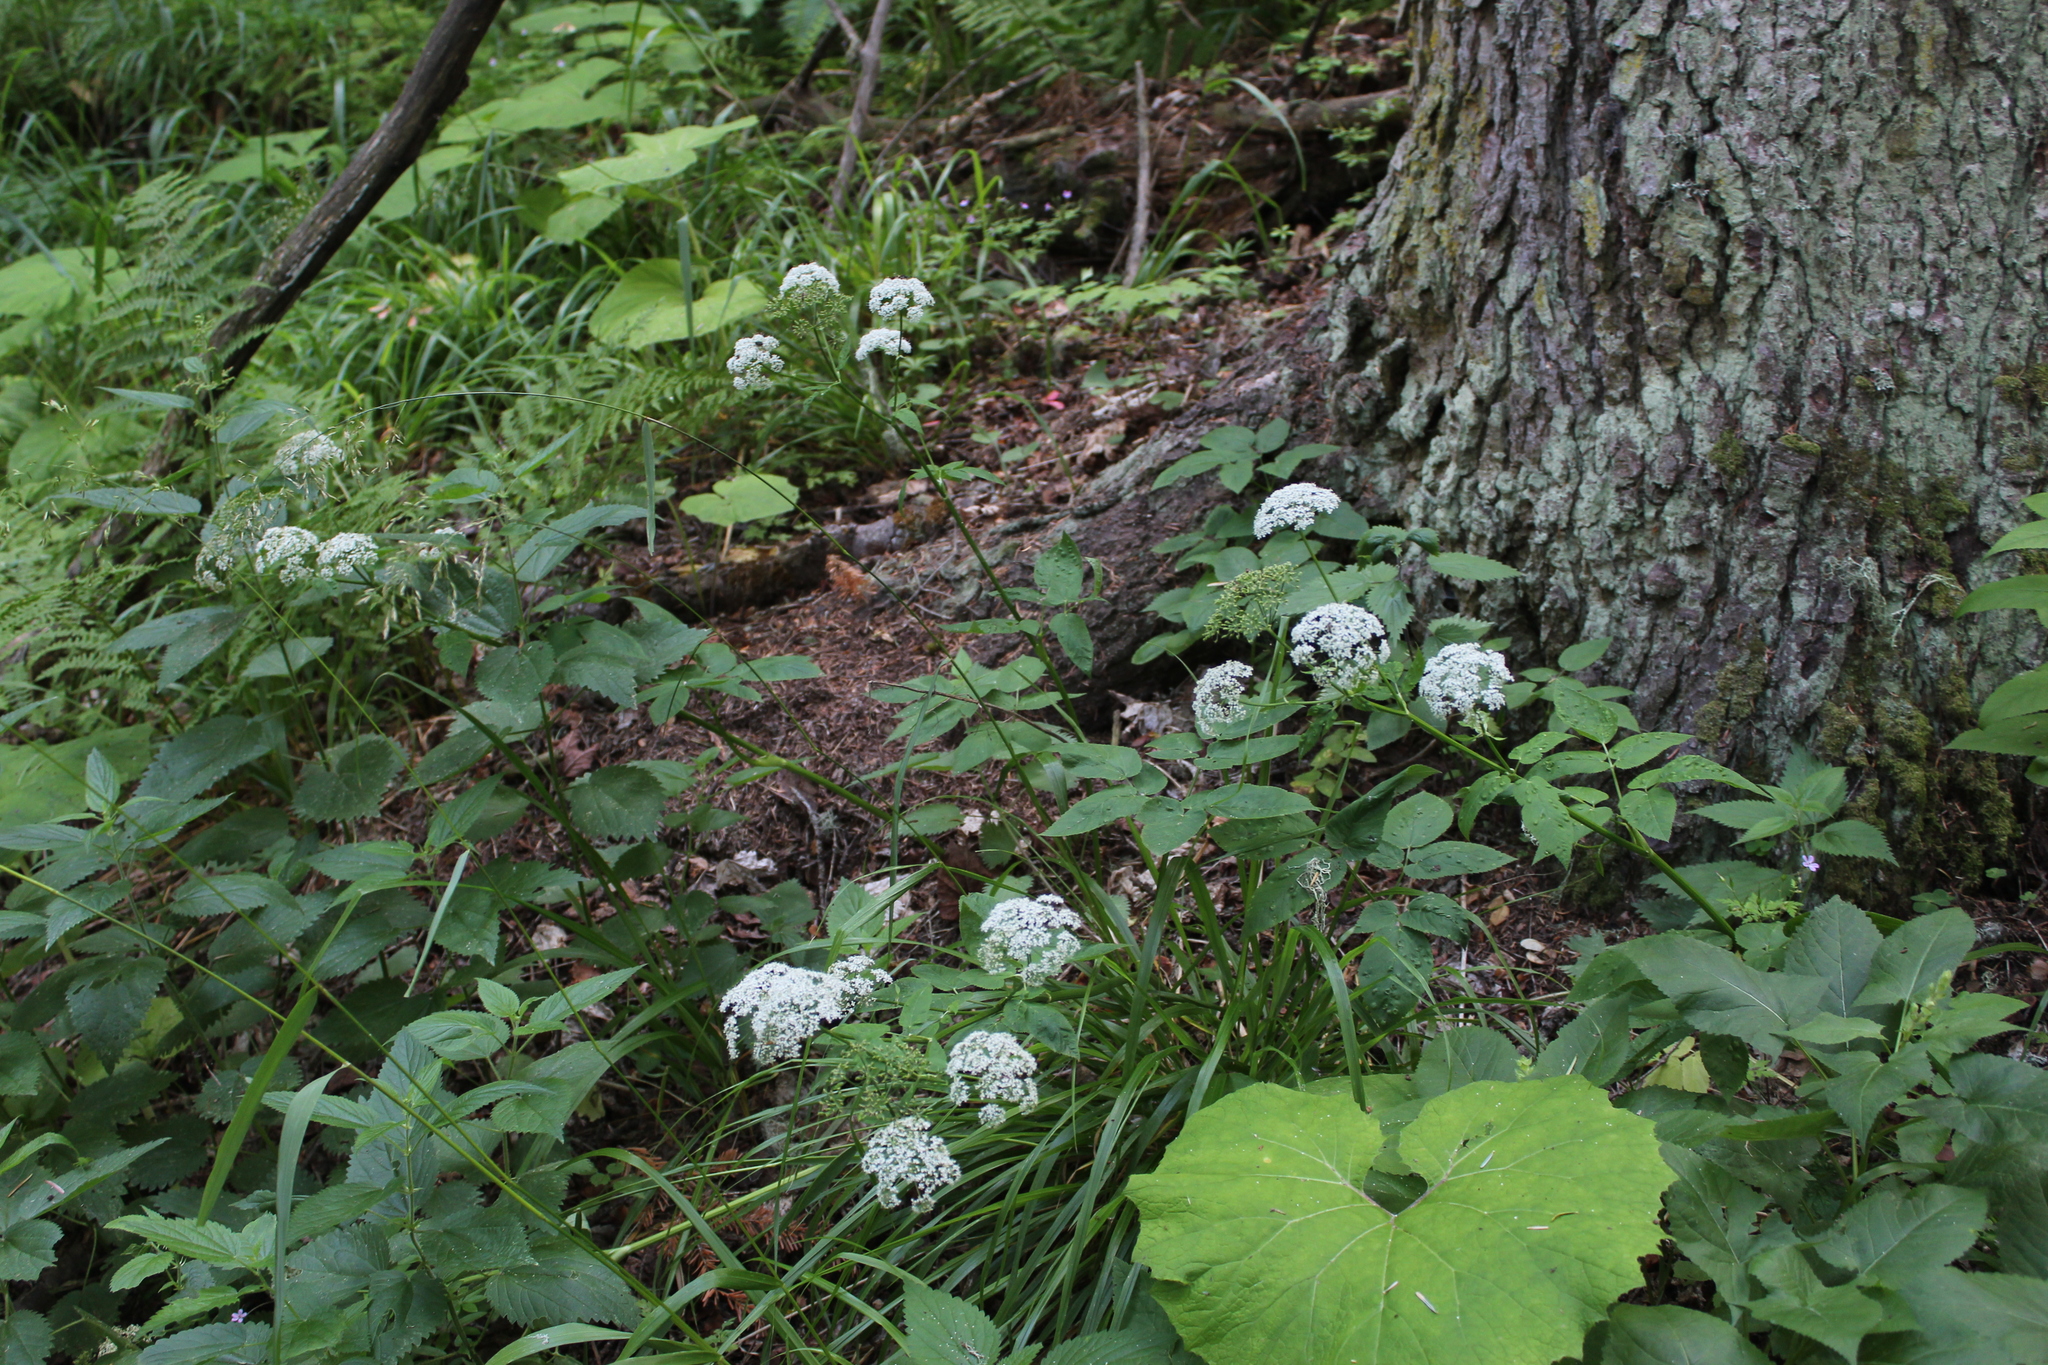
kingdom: Plantae
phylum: Tracheophyta
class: Magnoliopsida
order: Apiales
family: Apiaceae
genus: Aegopodium
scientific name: Aegopodium podagraria
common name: Ground-elder
